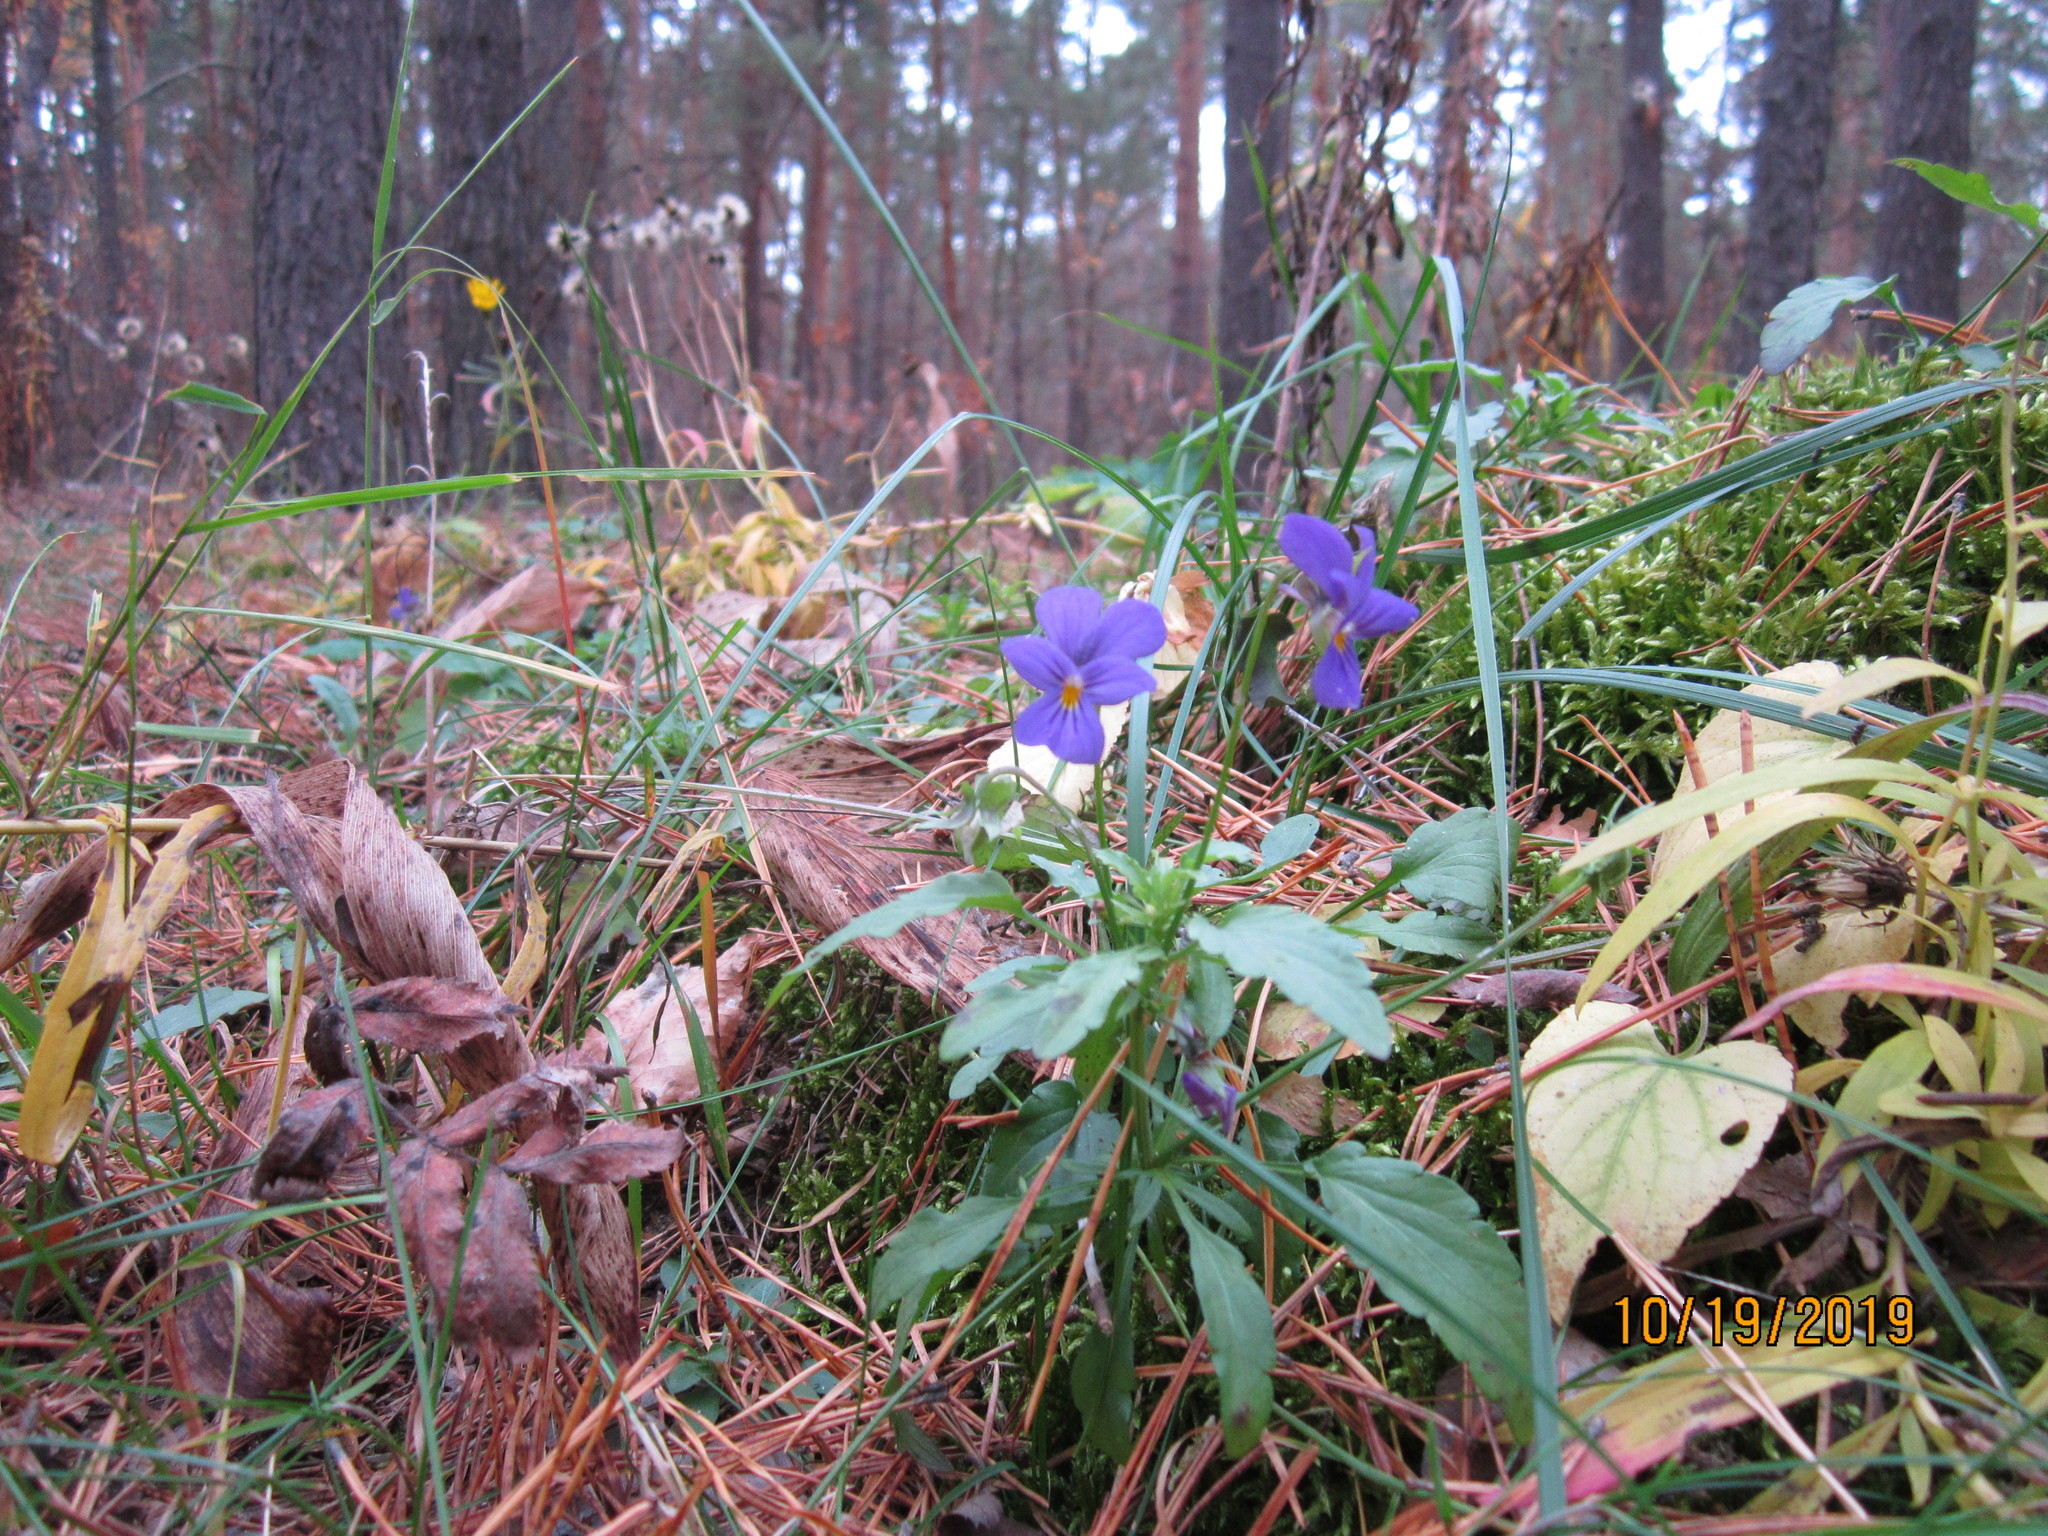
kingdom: Plantae
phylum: Tracheophyta
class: Magnoliopsida
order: Malpighiales
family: Violaceae
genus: Viola
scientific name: Viola tricolor
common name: Pansy
